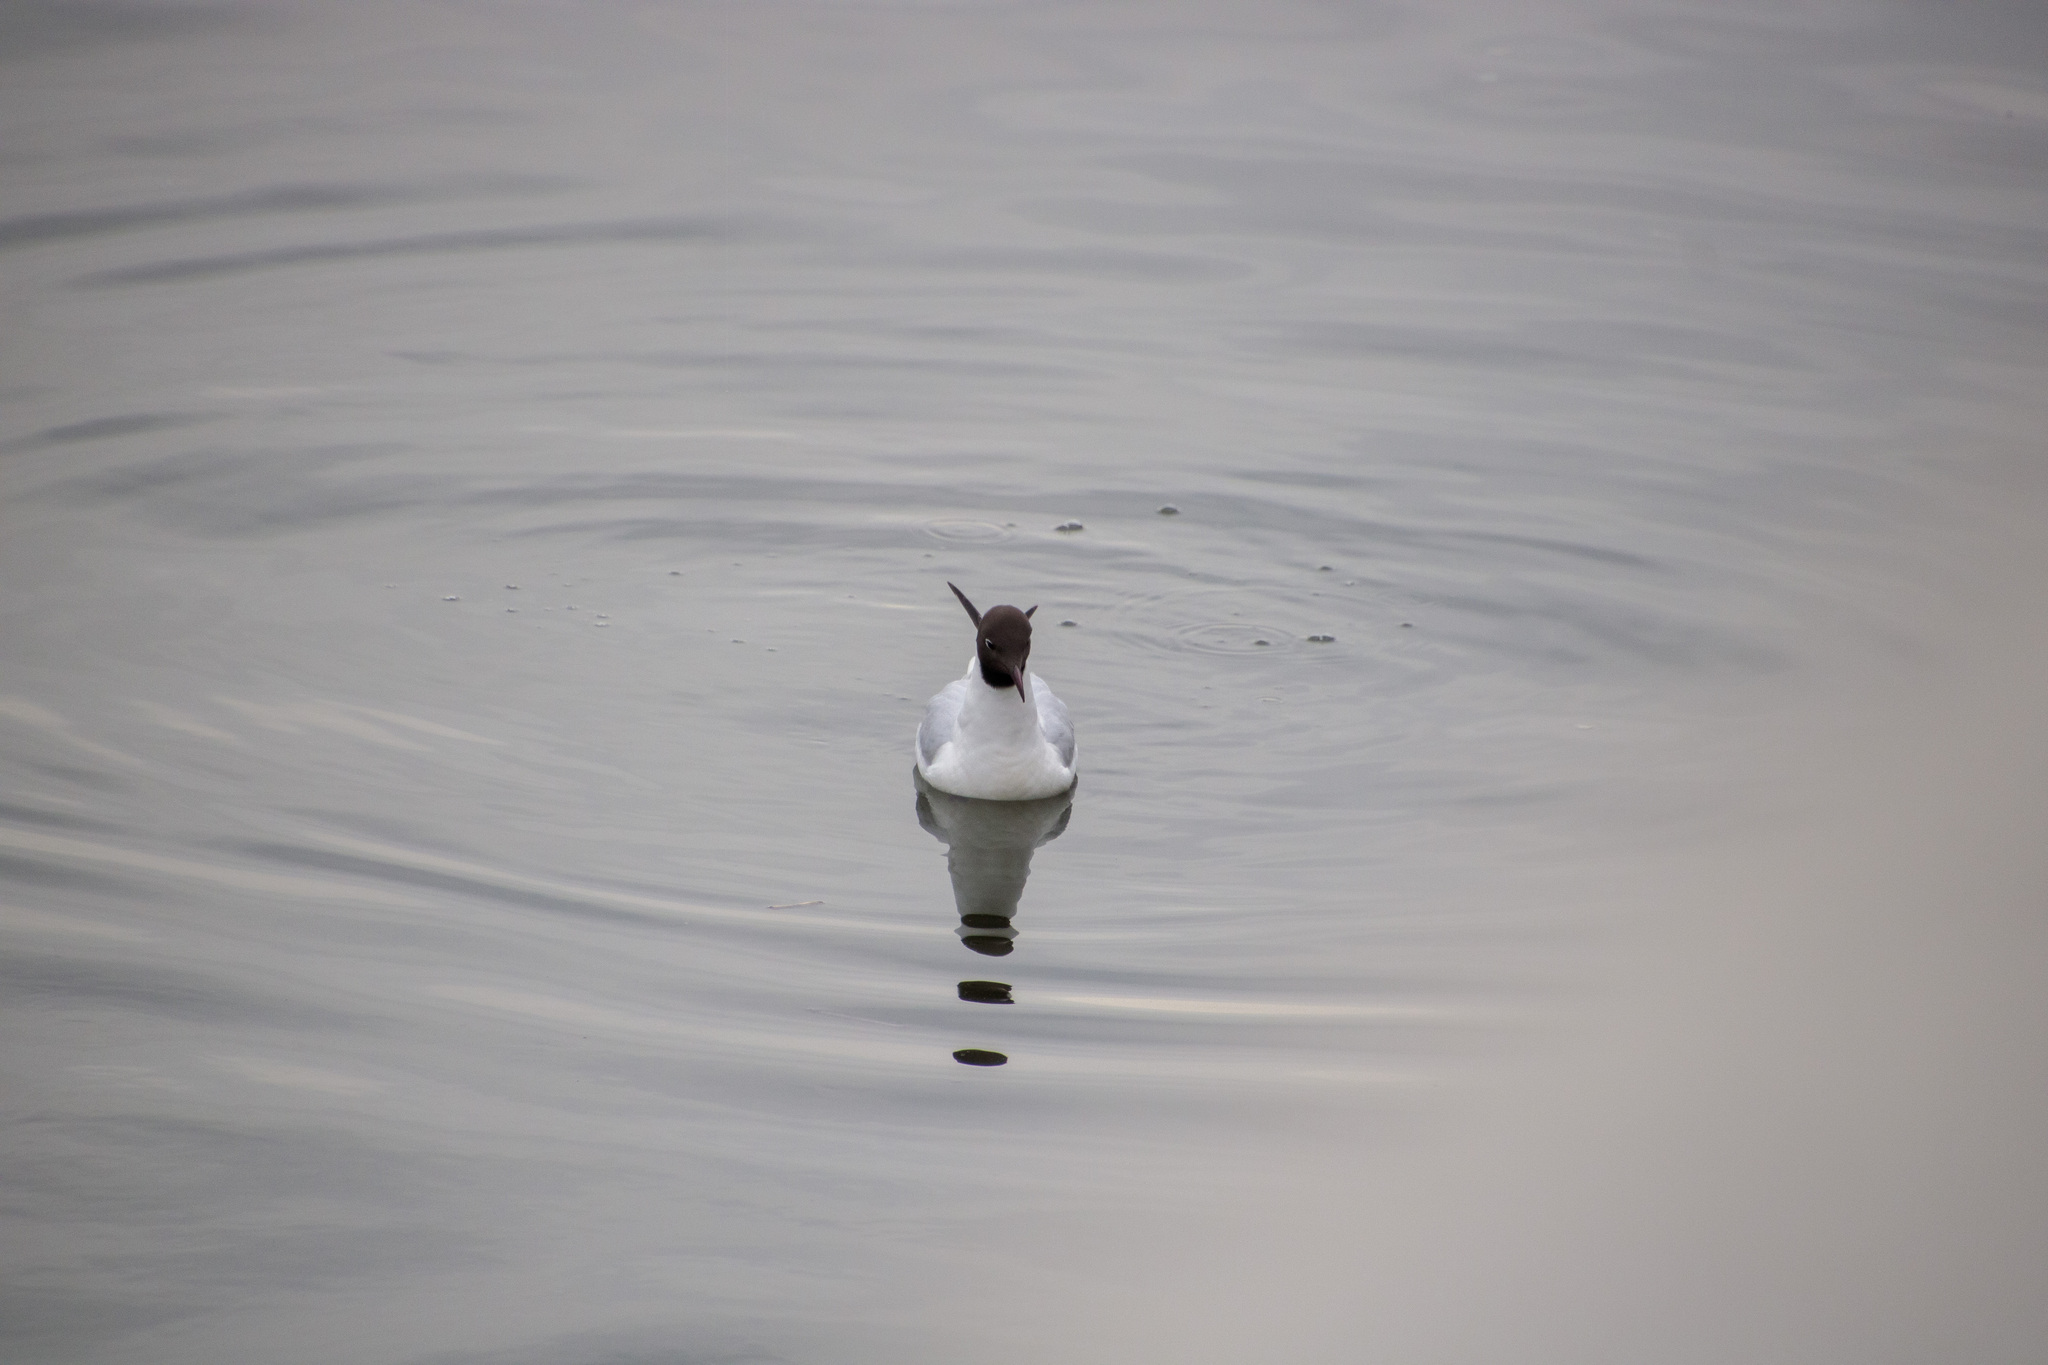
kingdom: Animalia
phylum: Chordata
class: Aves
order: Charadriiformes
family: Laridae
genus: Chroicocephalus
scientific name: Chroicocephalus ridibundus
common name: Black-headed gull
